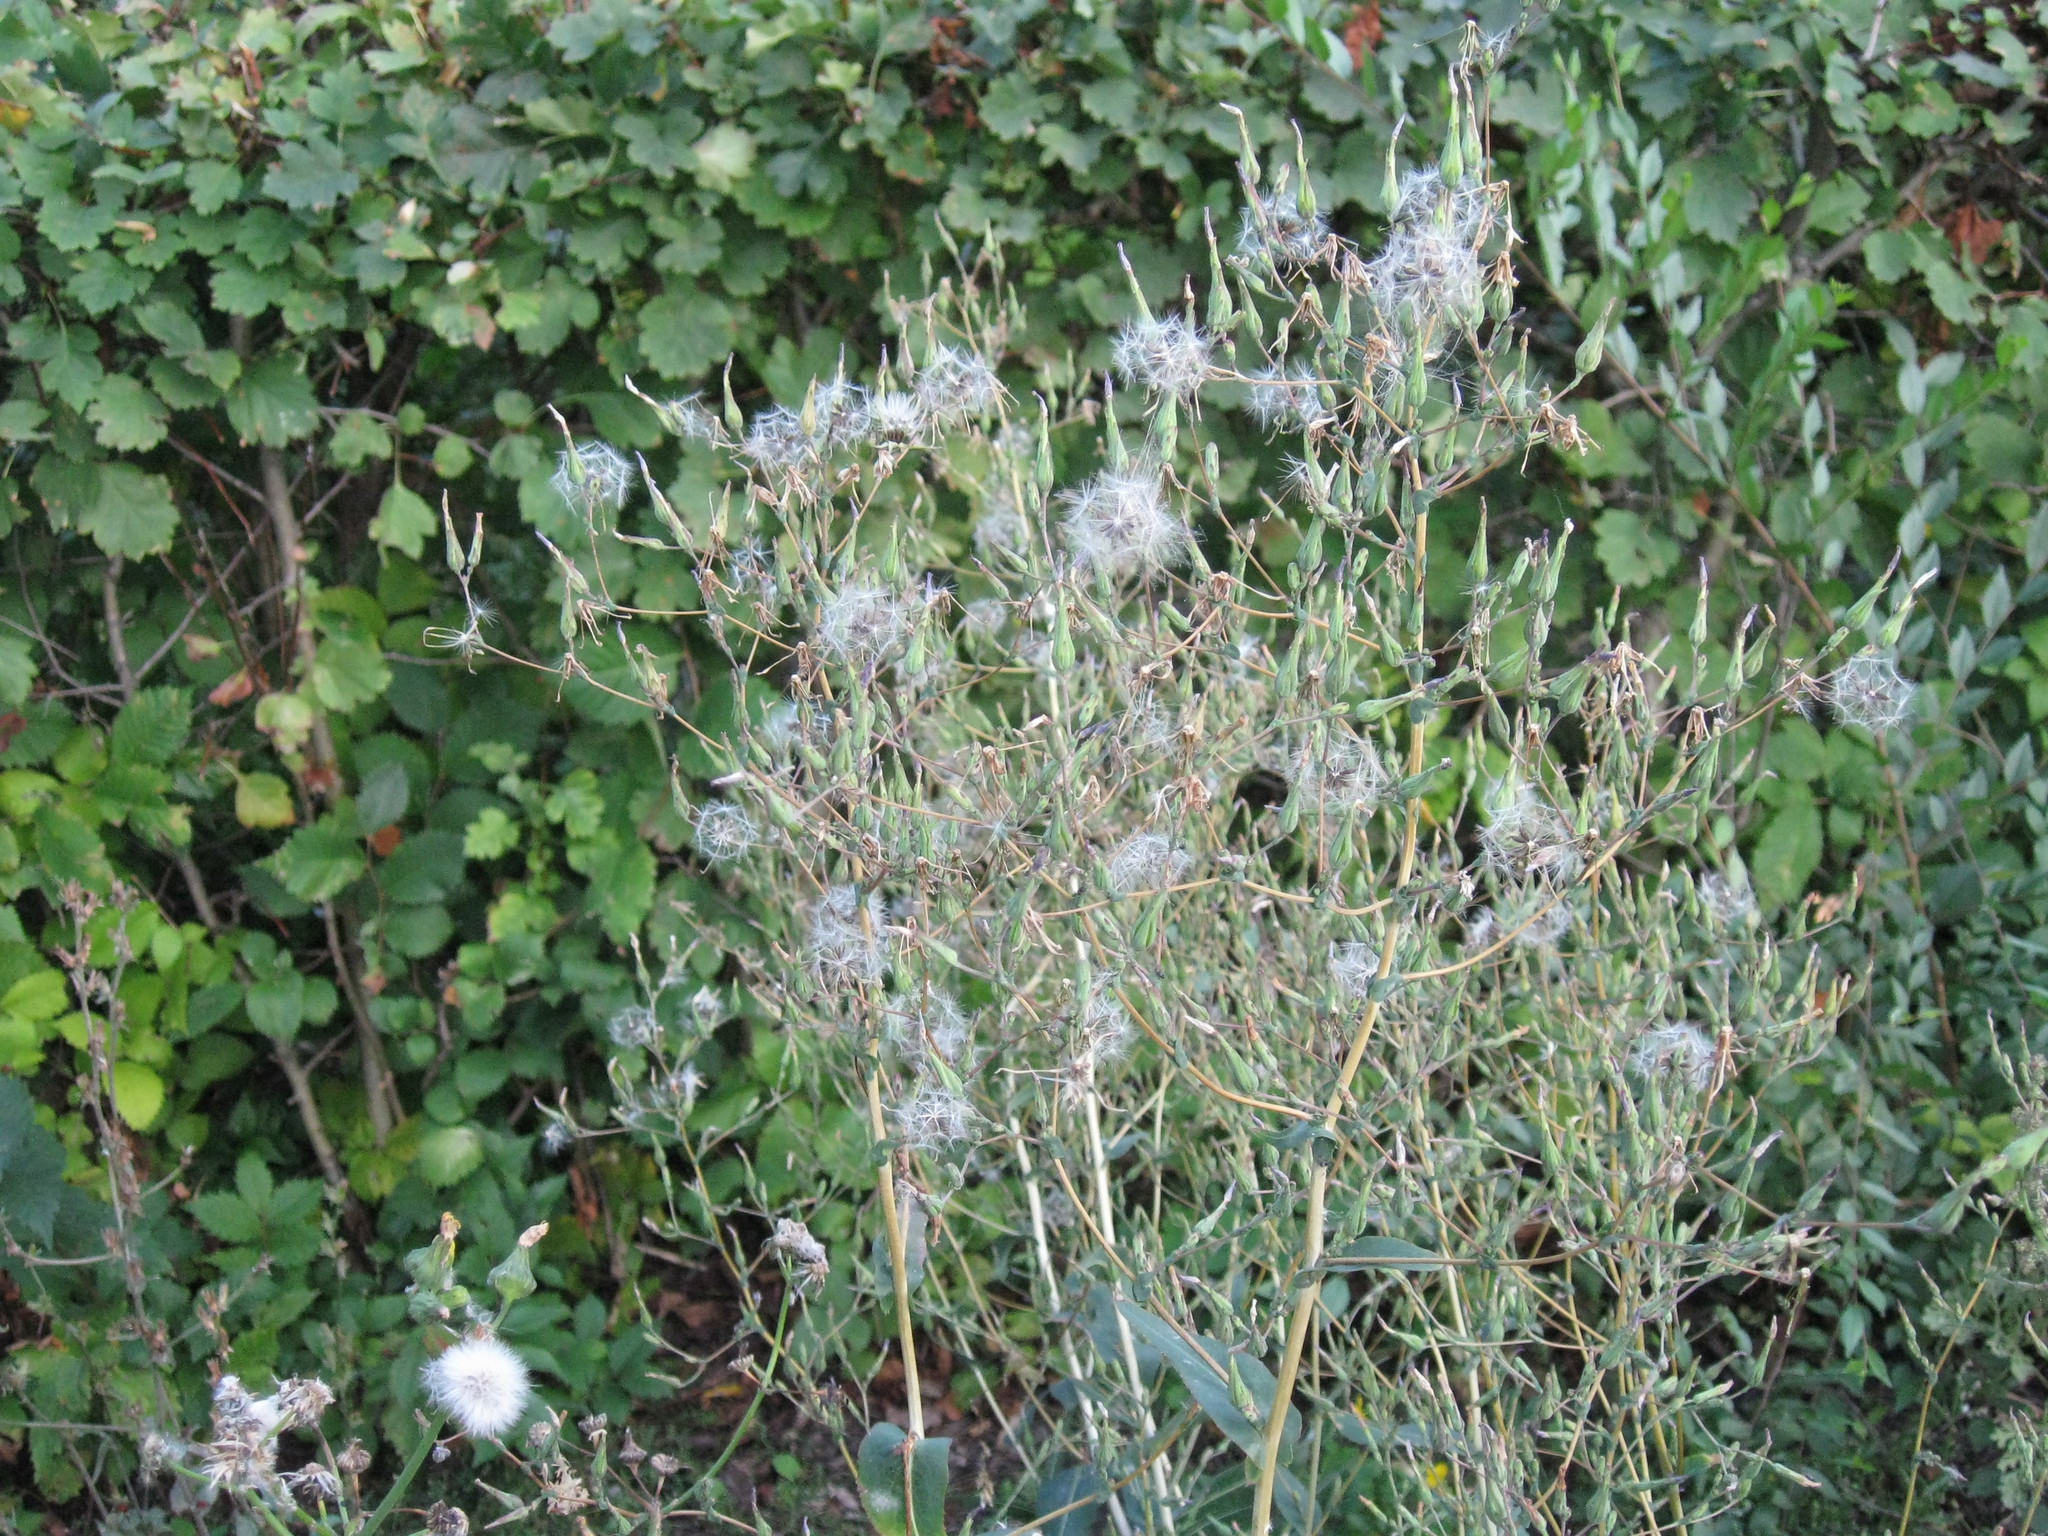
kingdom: Plantae
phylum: Tracheophyta
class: Magnoliopsida
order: Asterales
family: Asteraceae
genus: Lactuca
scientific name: Lactuca serriola
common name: Prickly lettuce
